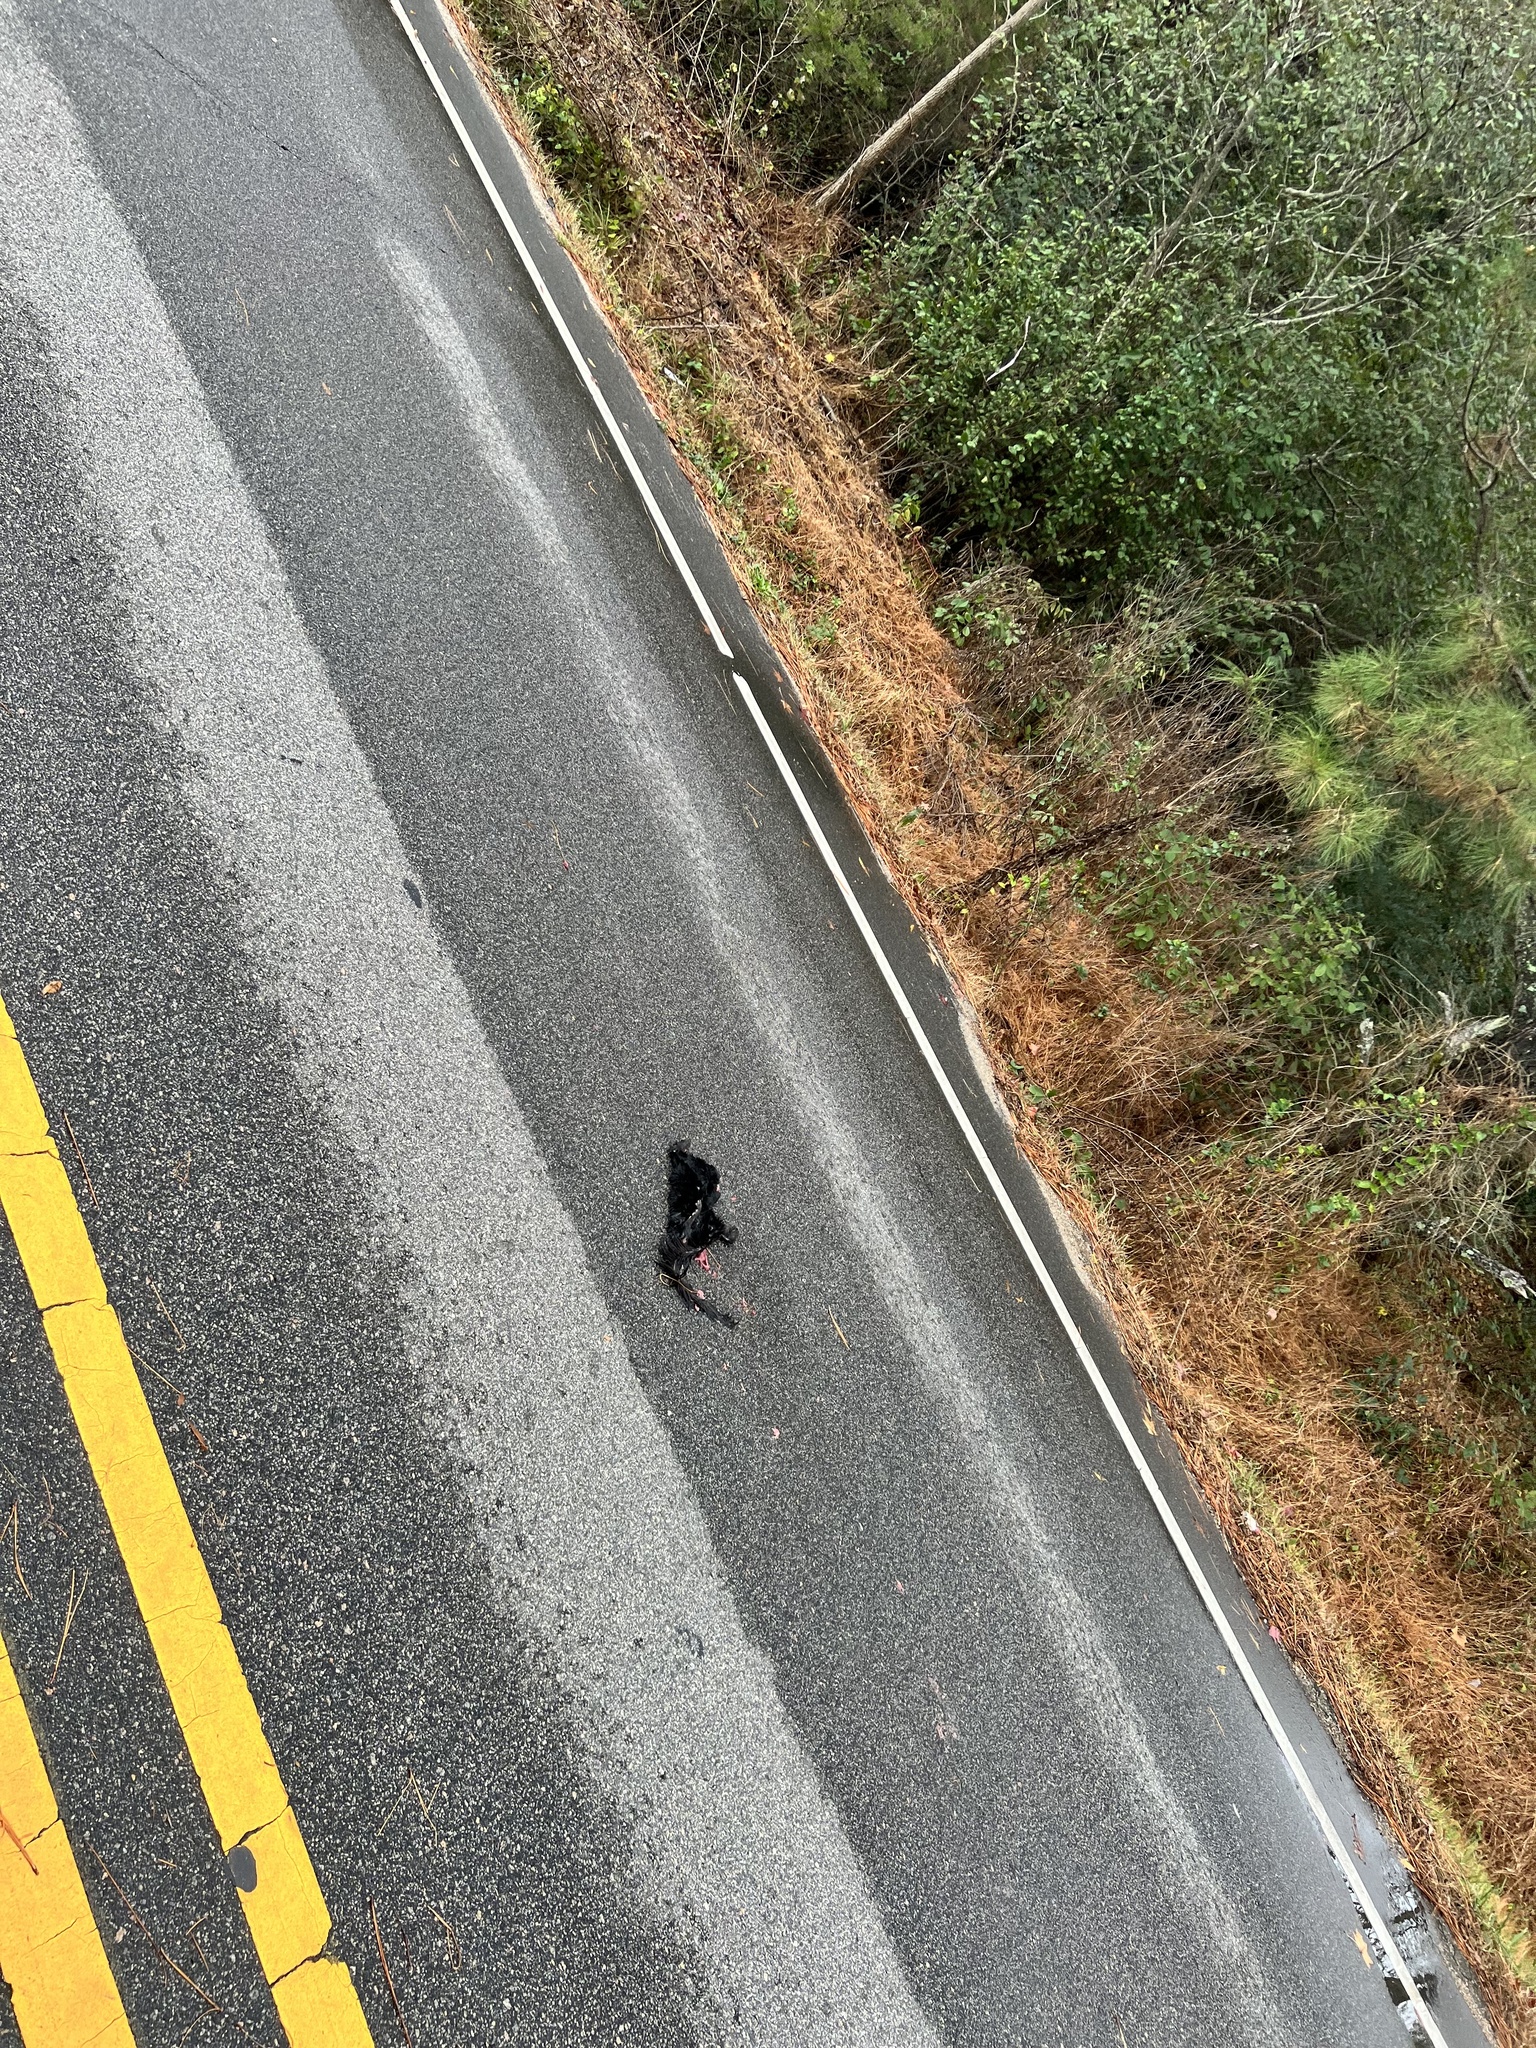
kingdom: Animalia
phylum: Chordata
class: Mammalia
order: Carnivora
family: Felidae
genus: Felis
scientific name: Felis catus
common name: Domestic cat
